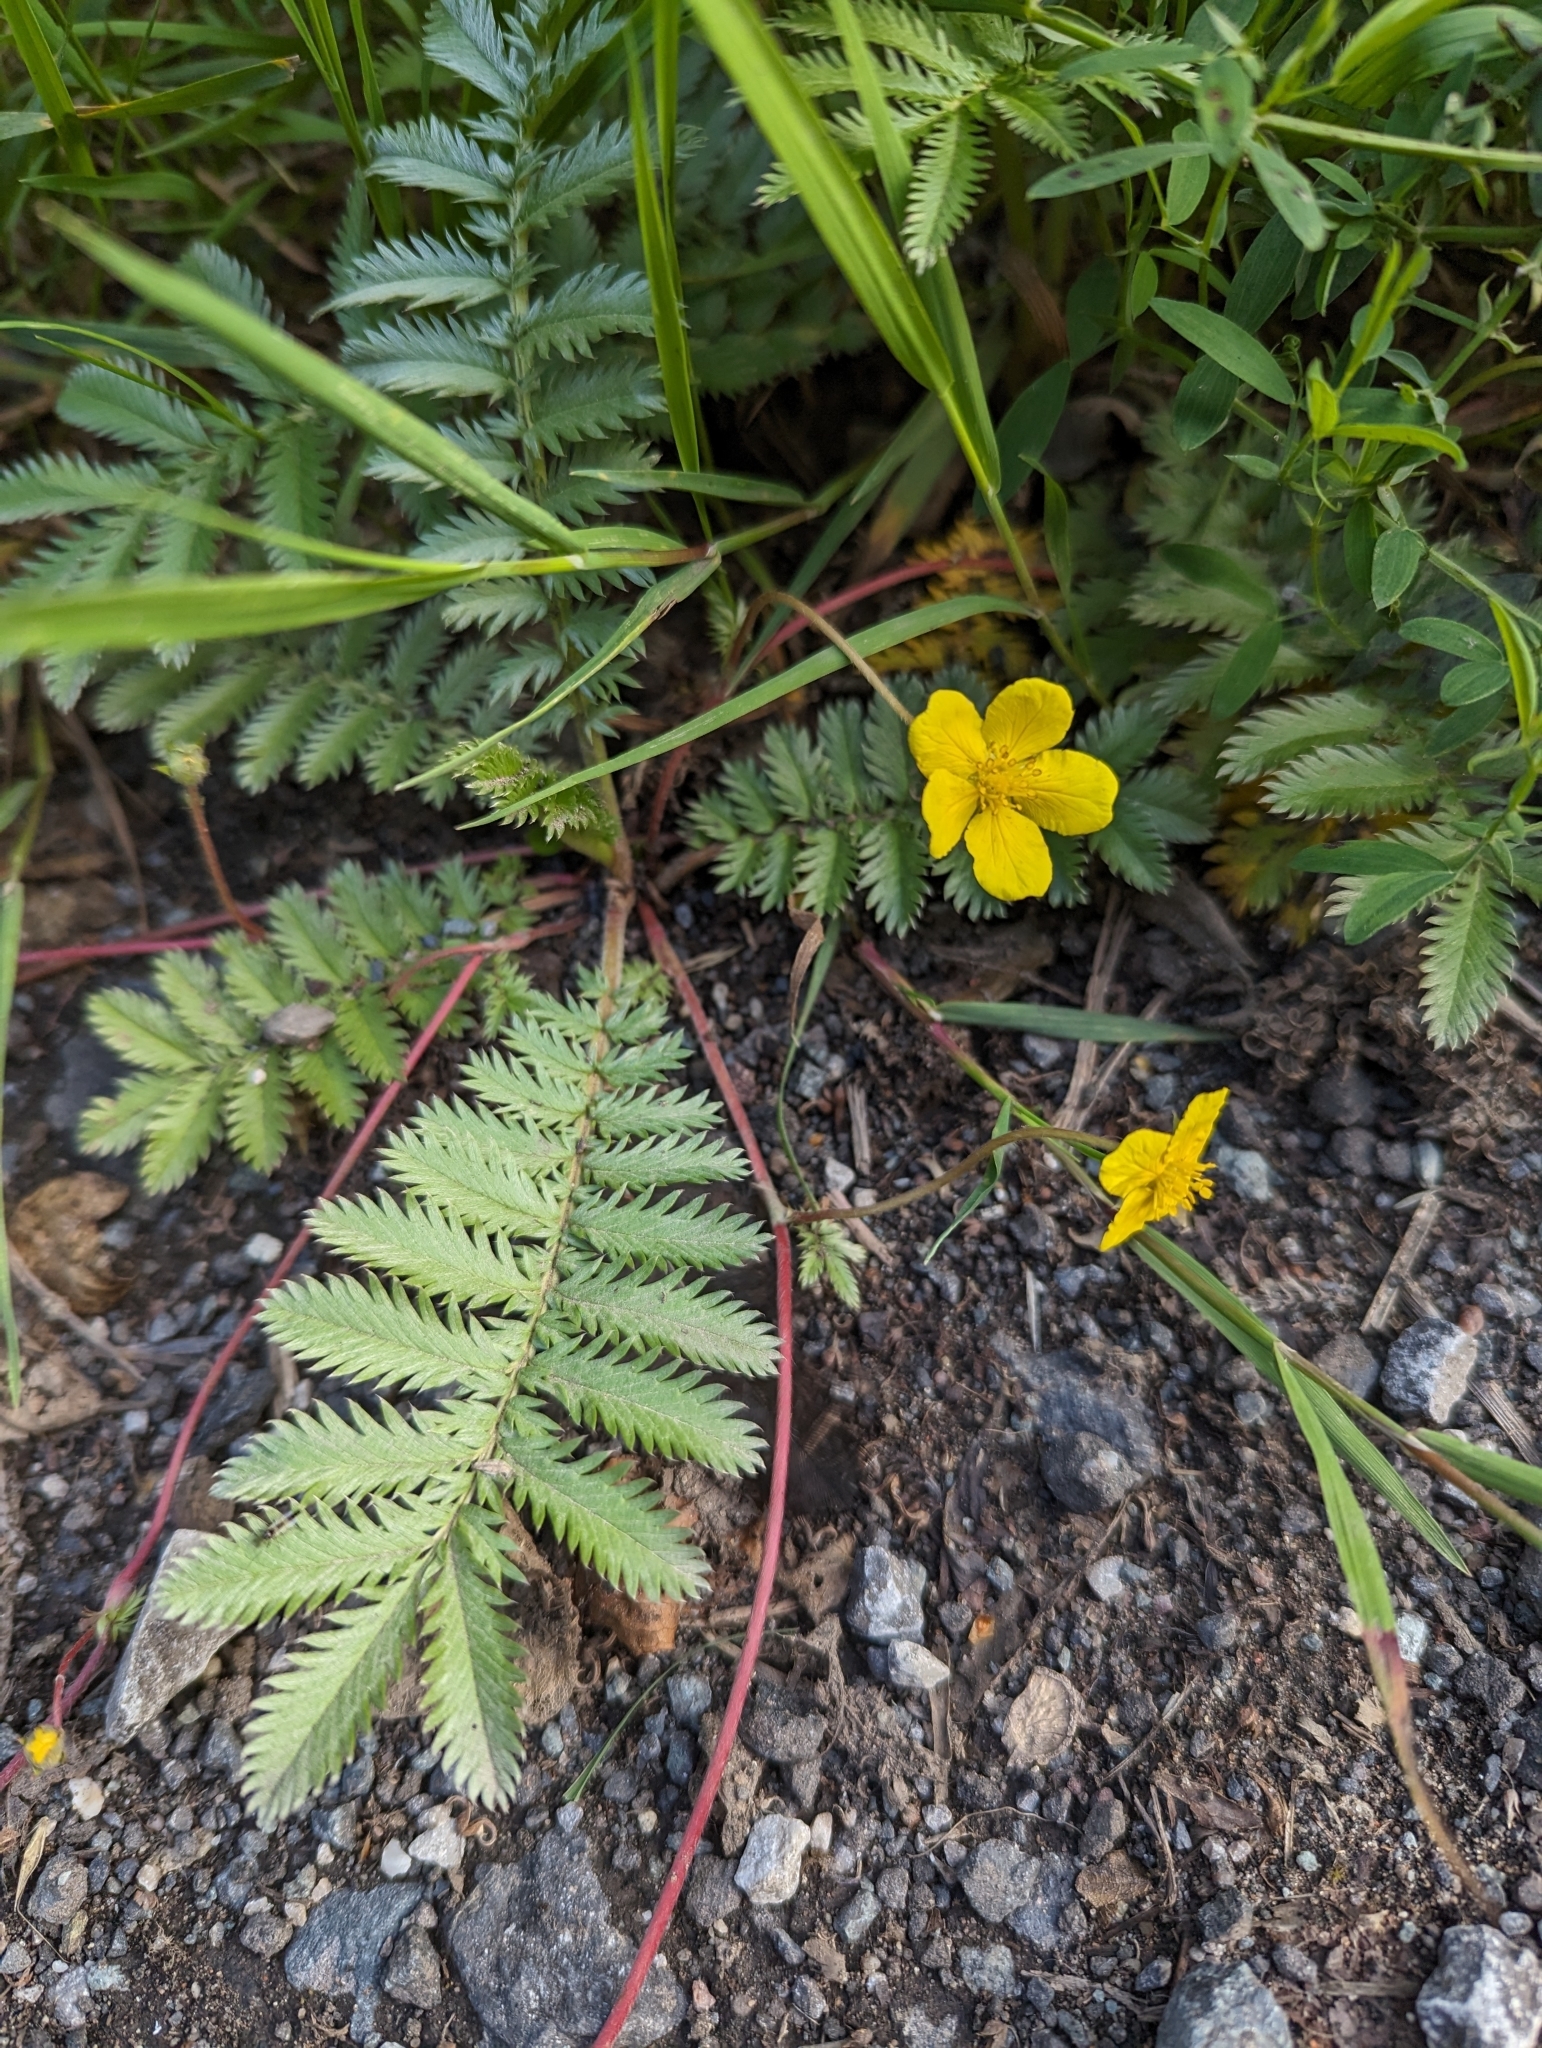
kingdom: Plantae
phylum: Tracheophyta
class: Magnoliopsida
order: Rosales
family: Rosaceae
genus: Argentina
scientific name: Argentina anserina
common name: Common silverweed
